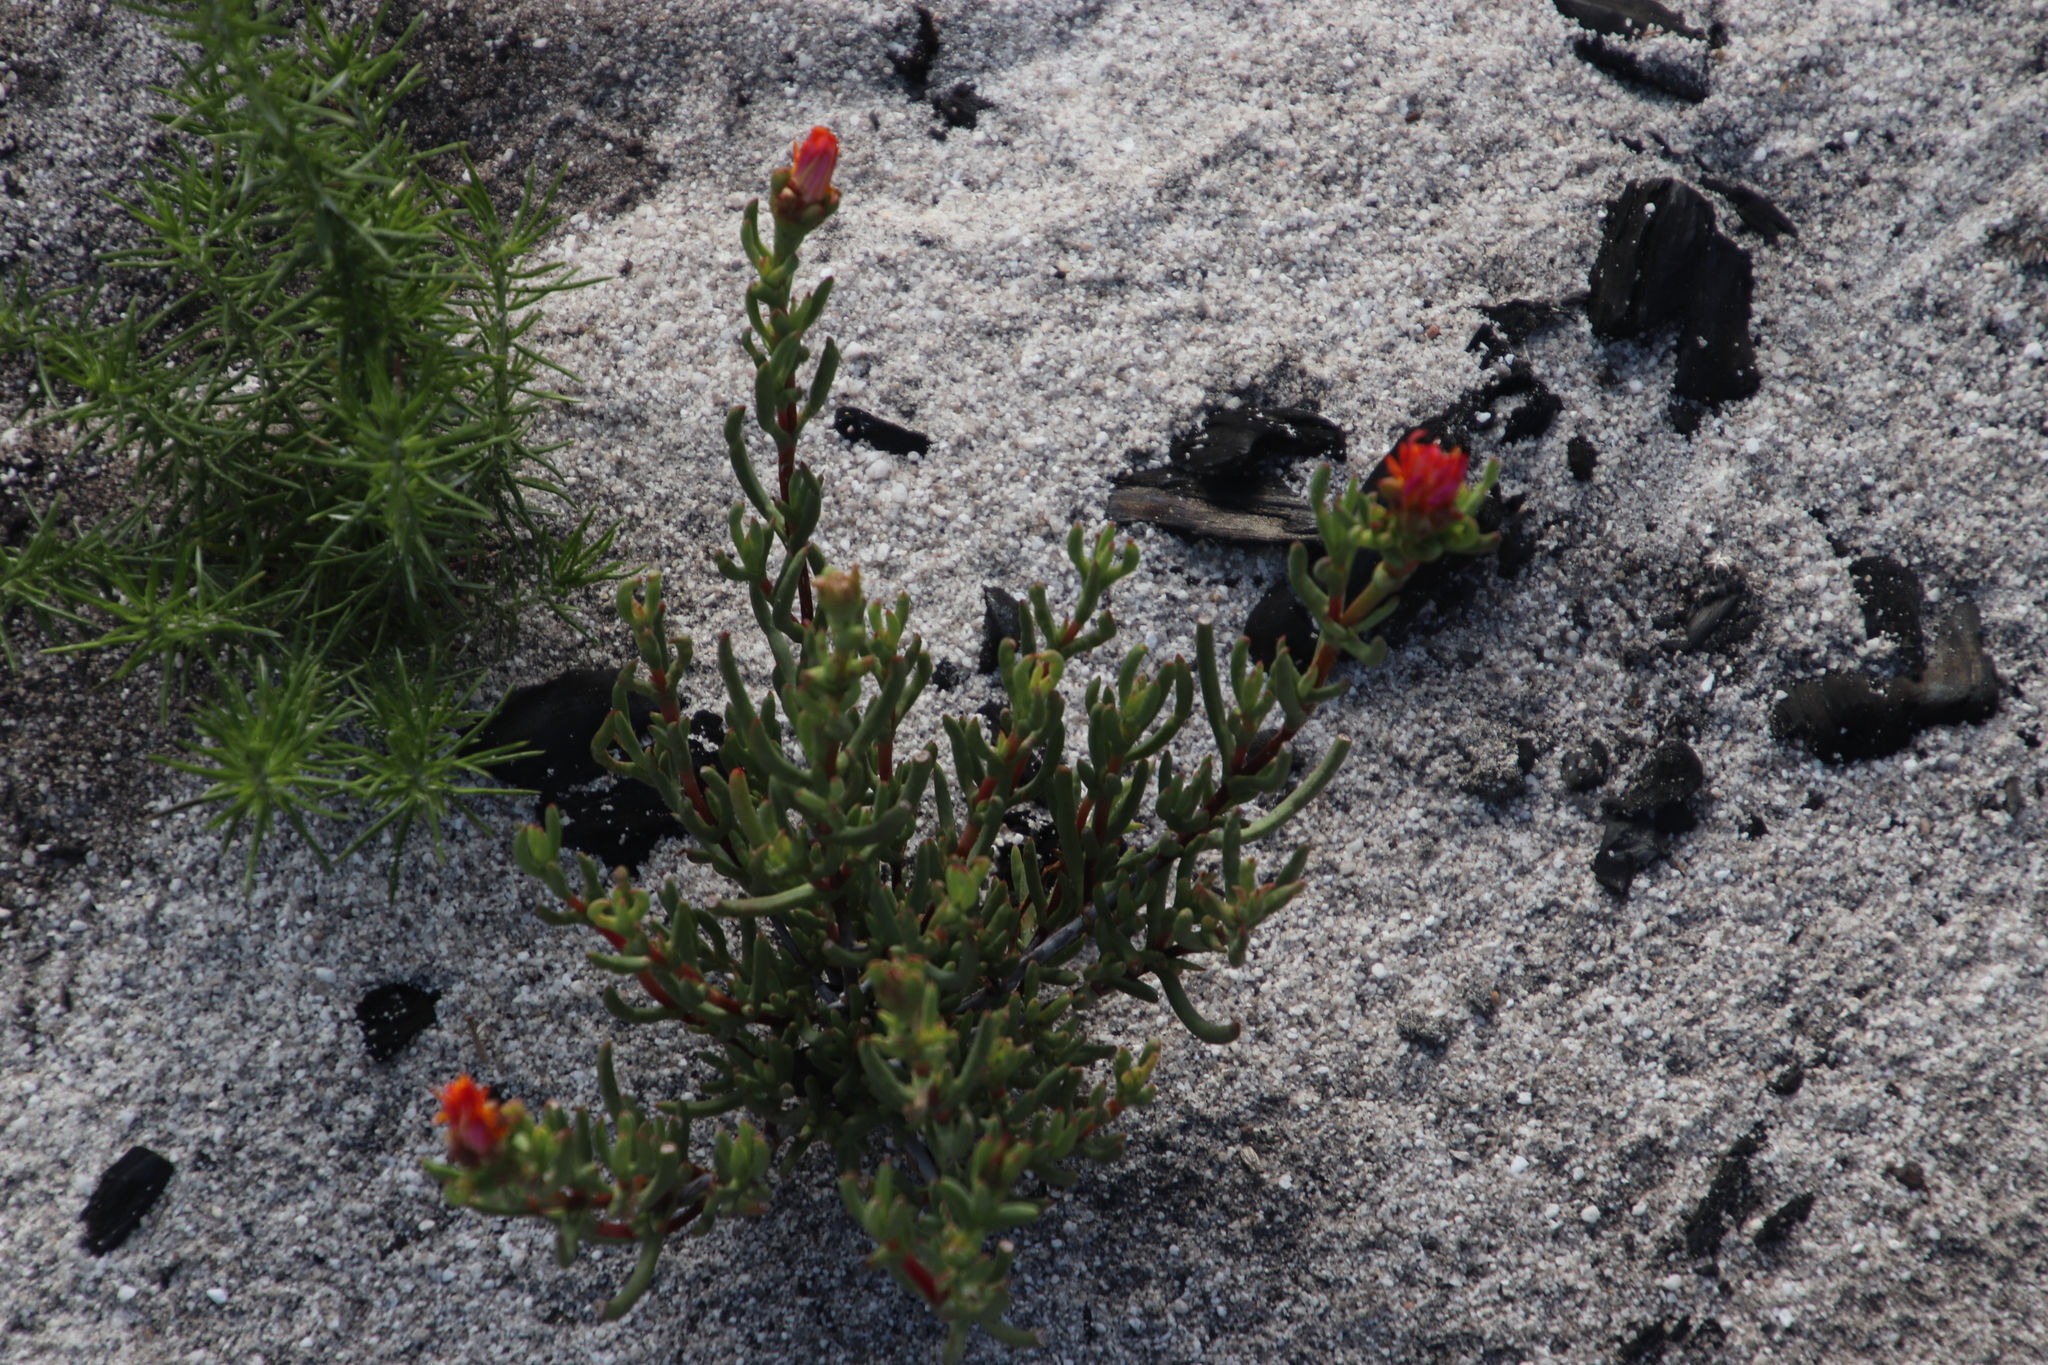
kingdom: Plantae
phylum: Tracheophyta
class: Magnoliopsida
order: Caryophyllales
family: Aizoaceae
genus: Lampranthus
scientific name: Lampranthus bicolor
